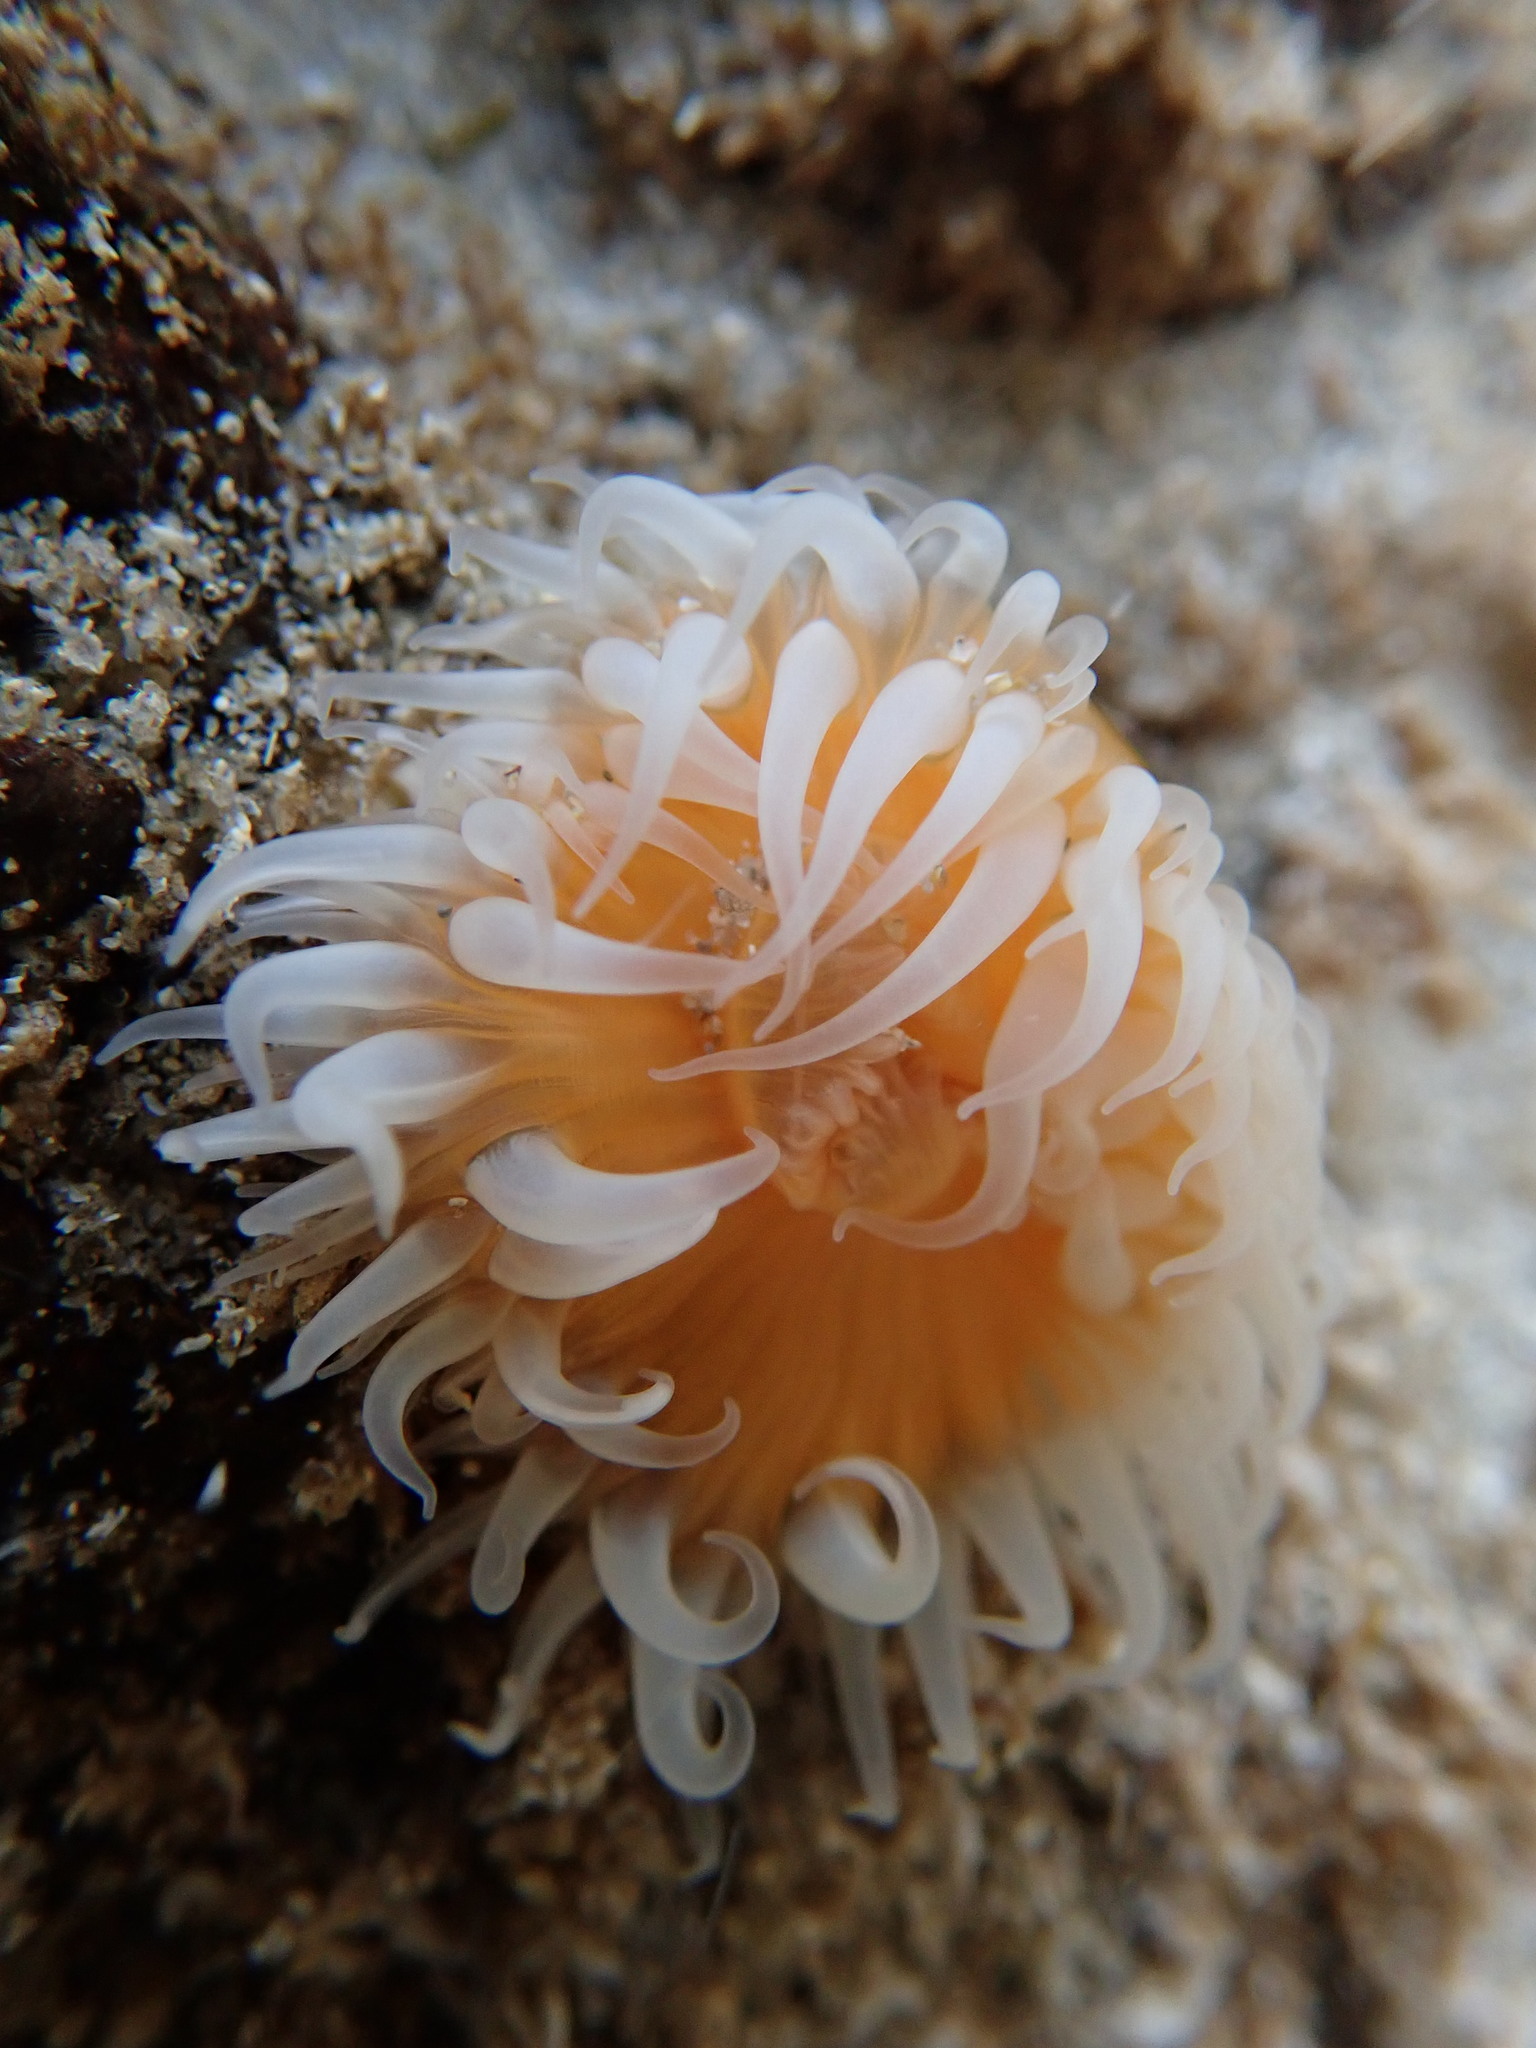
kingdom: Animalia
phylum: Cnidaria
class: Anthozoa
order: Actiniaria
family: Sagartiidae
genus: Anthothoe
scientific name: Anthothoe albocincta
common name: Orange striped anemone
